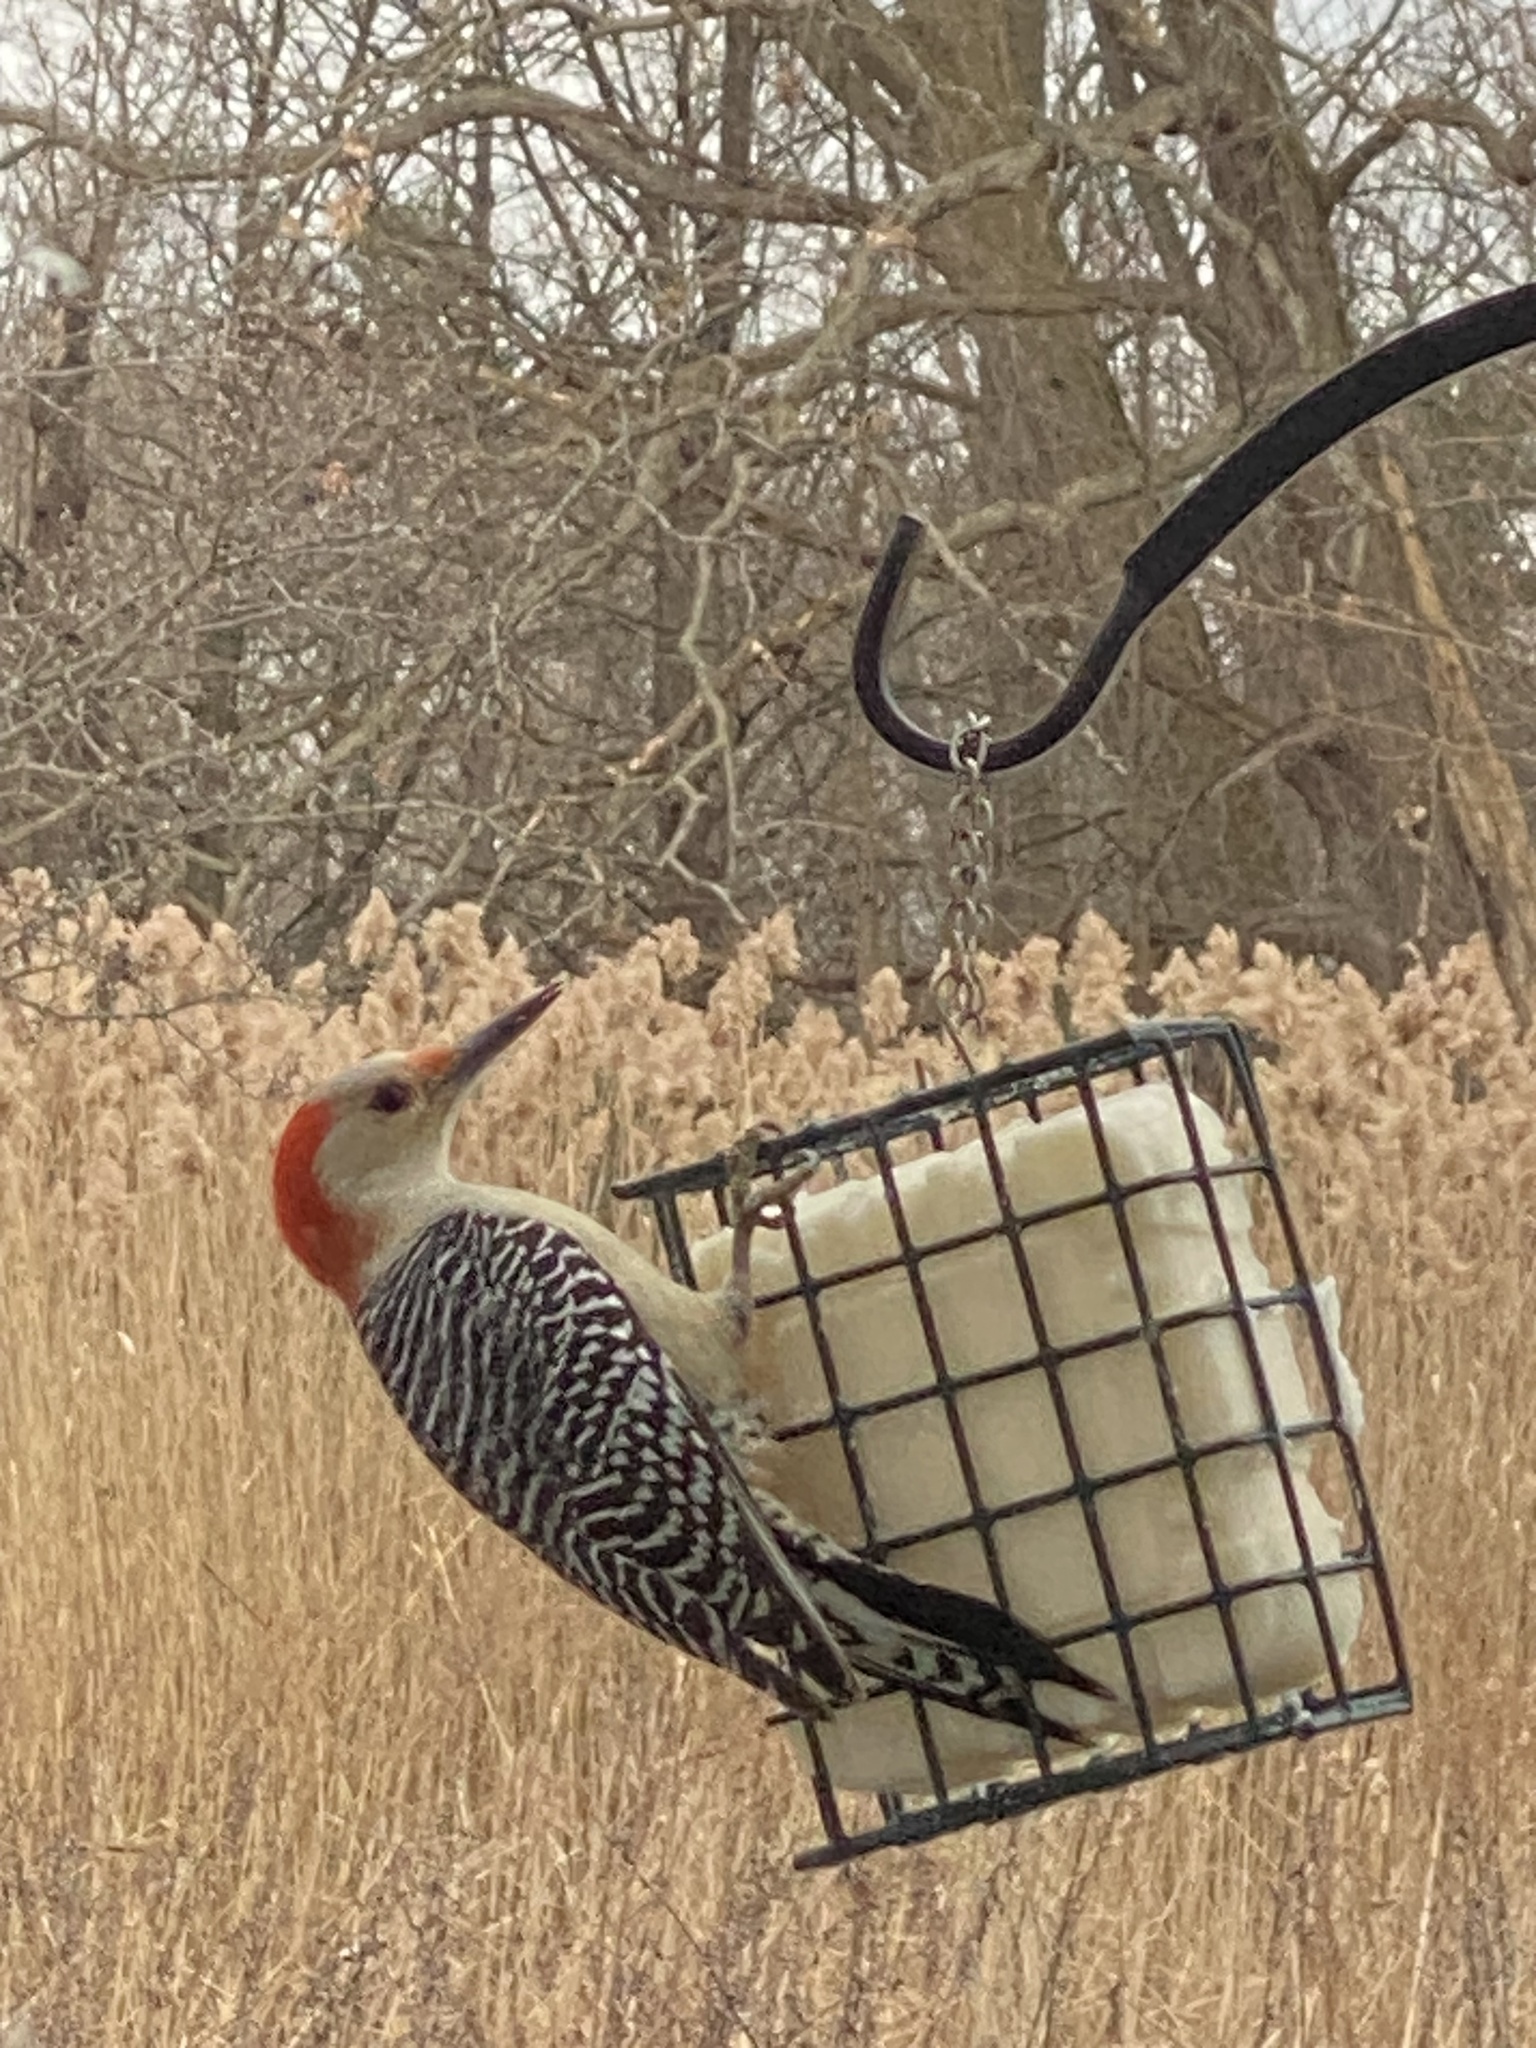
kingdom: Animalia
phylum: Chordata
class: Aves
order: Piciformes
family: Picidae
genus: Melanerpes
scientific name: Melanerpes carolinus
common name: Red-bellied woodpecker
